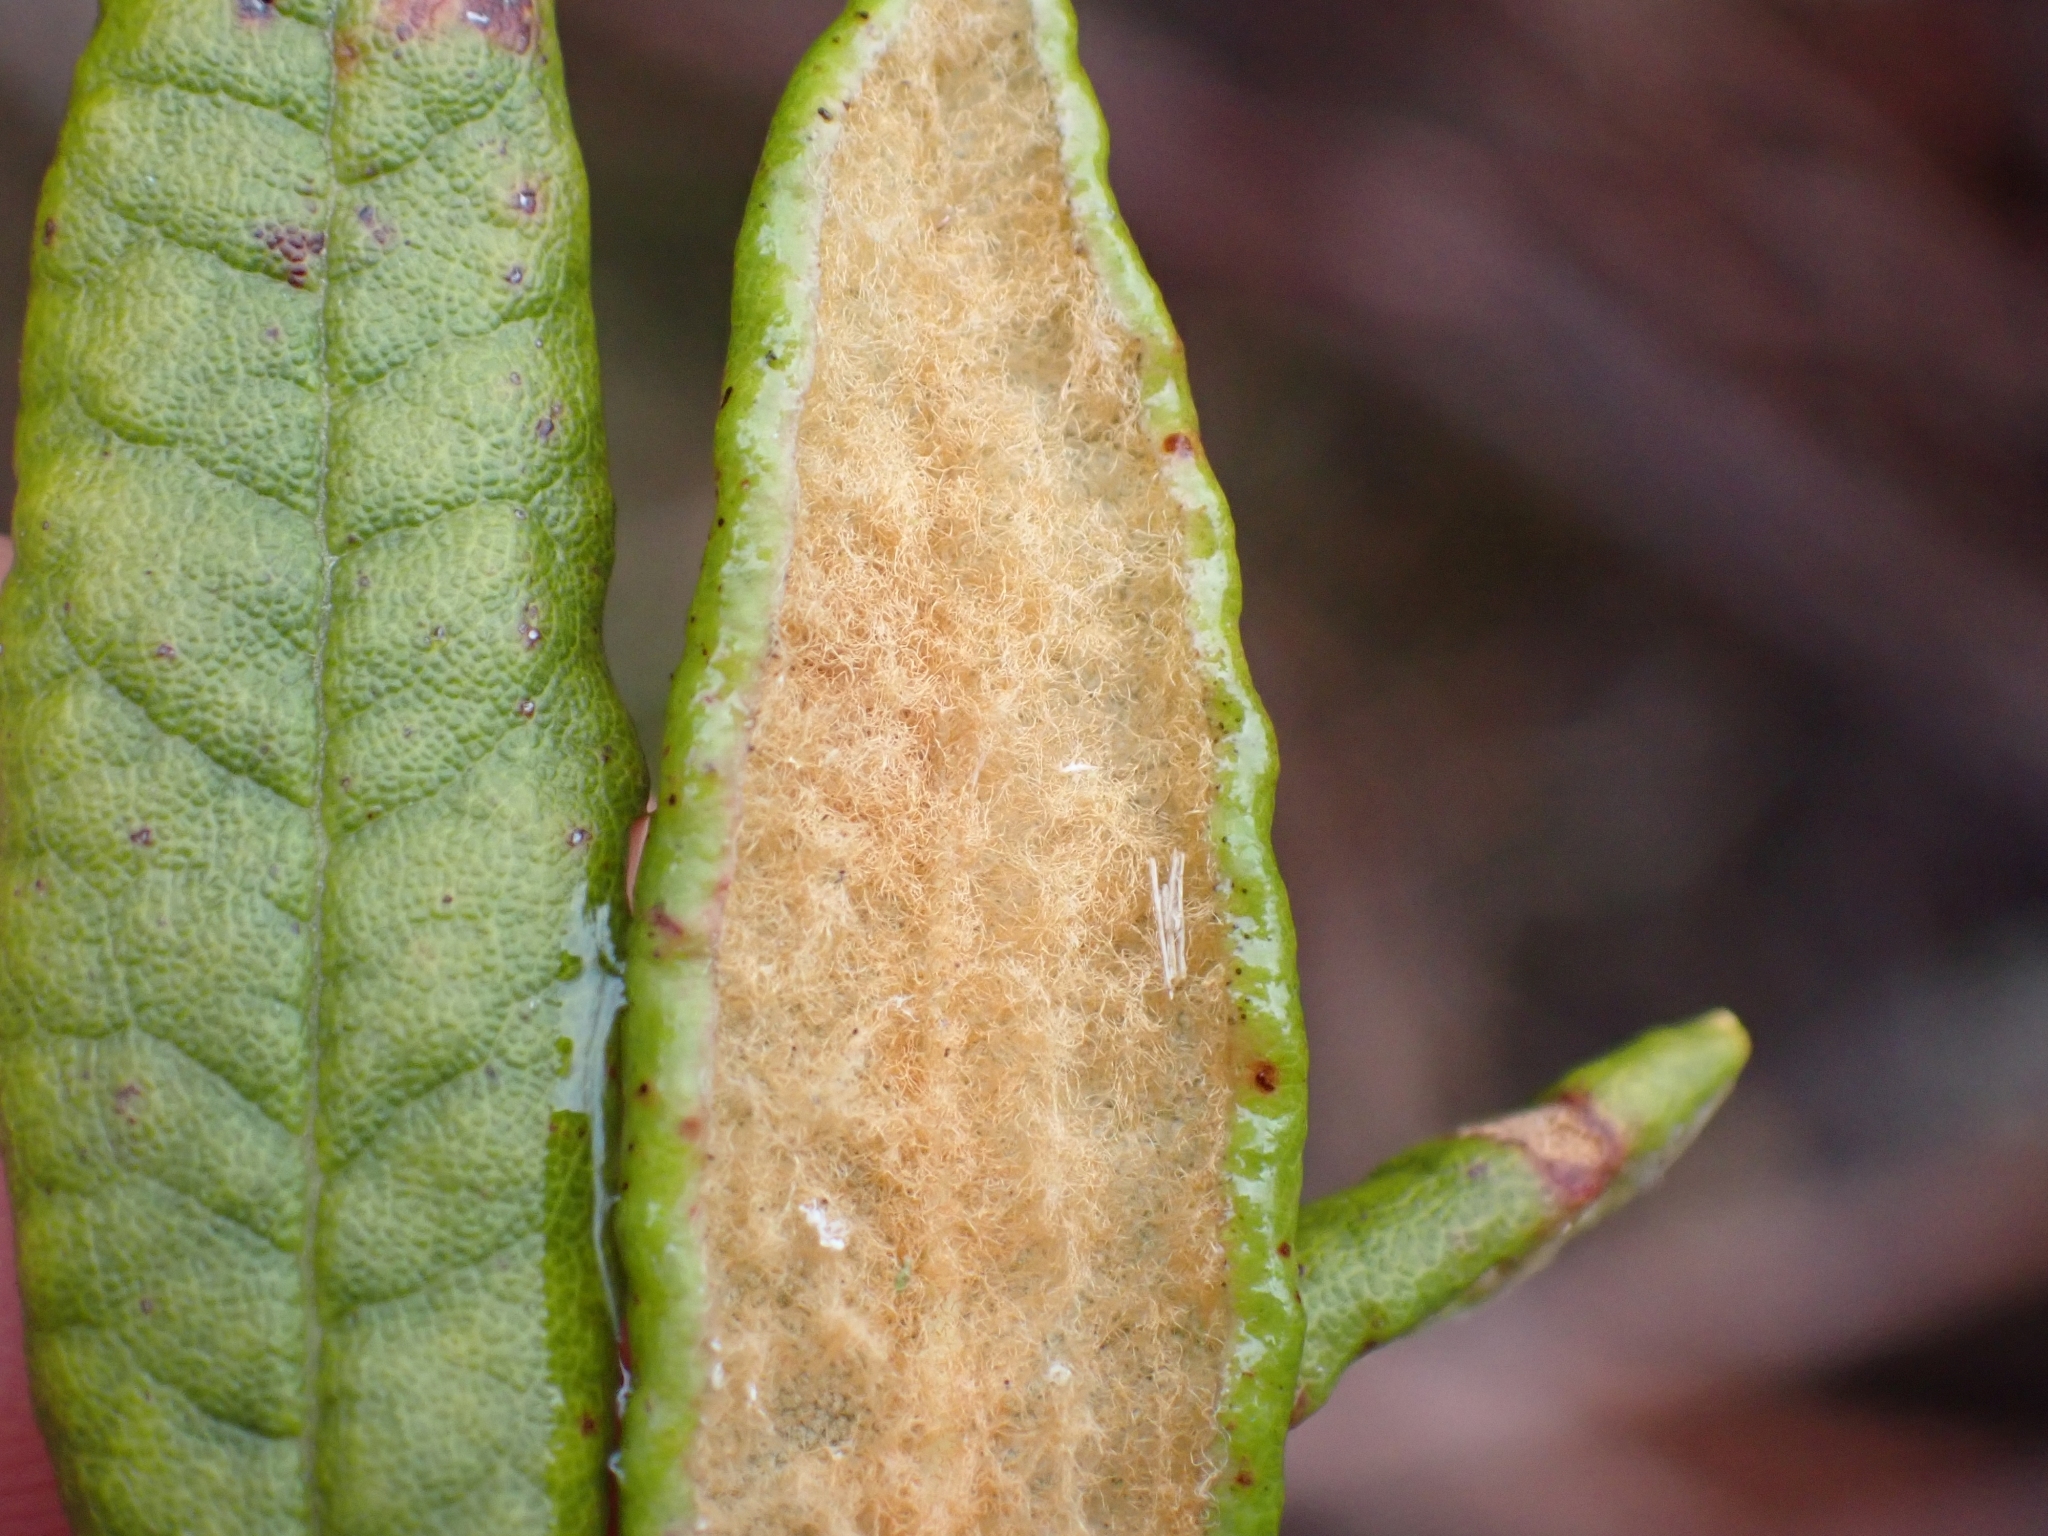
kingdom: Plantae
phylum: Tracheophyta
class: Magnoliopsida
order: Ericales
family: Ericaceae
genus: Rhododendron
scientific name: Rhododendron groenlandicum
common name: Bog labrador tea
